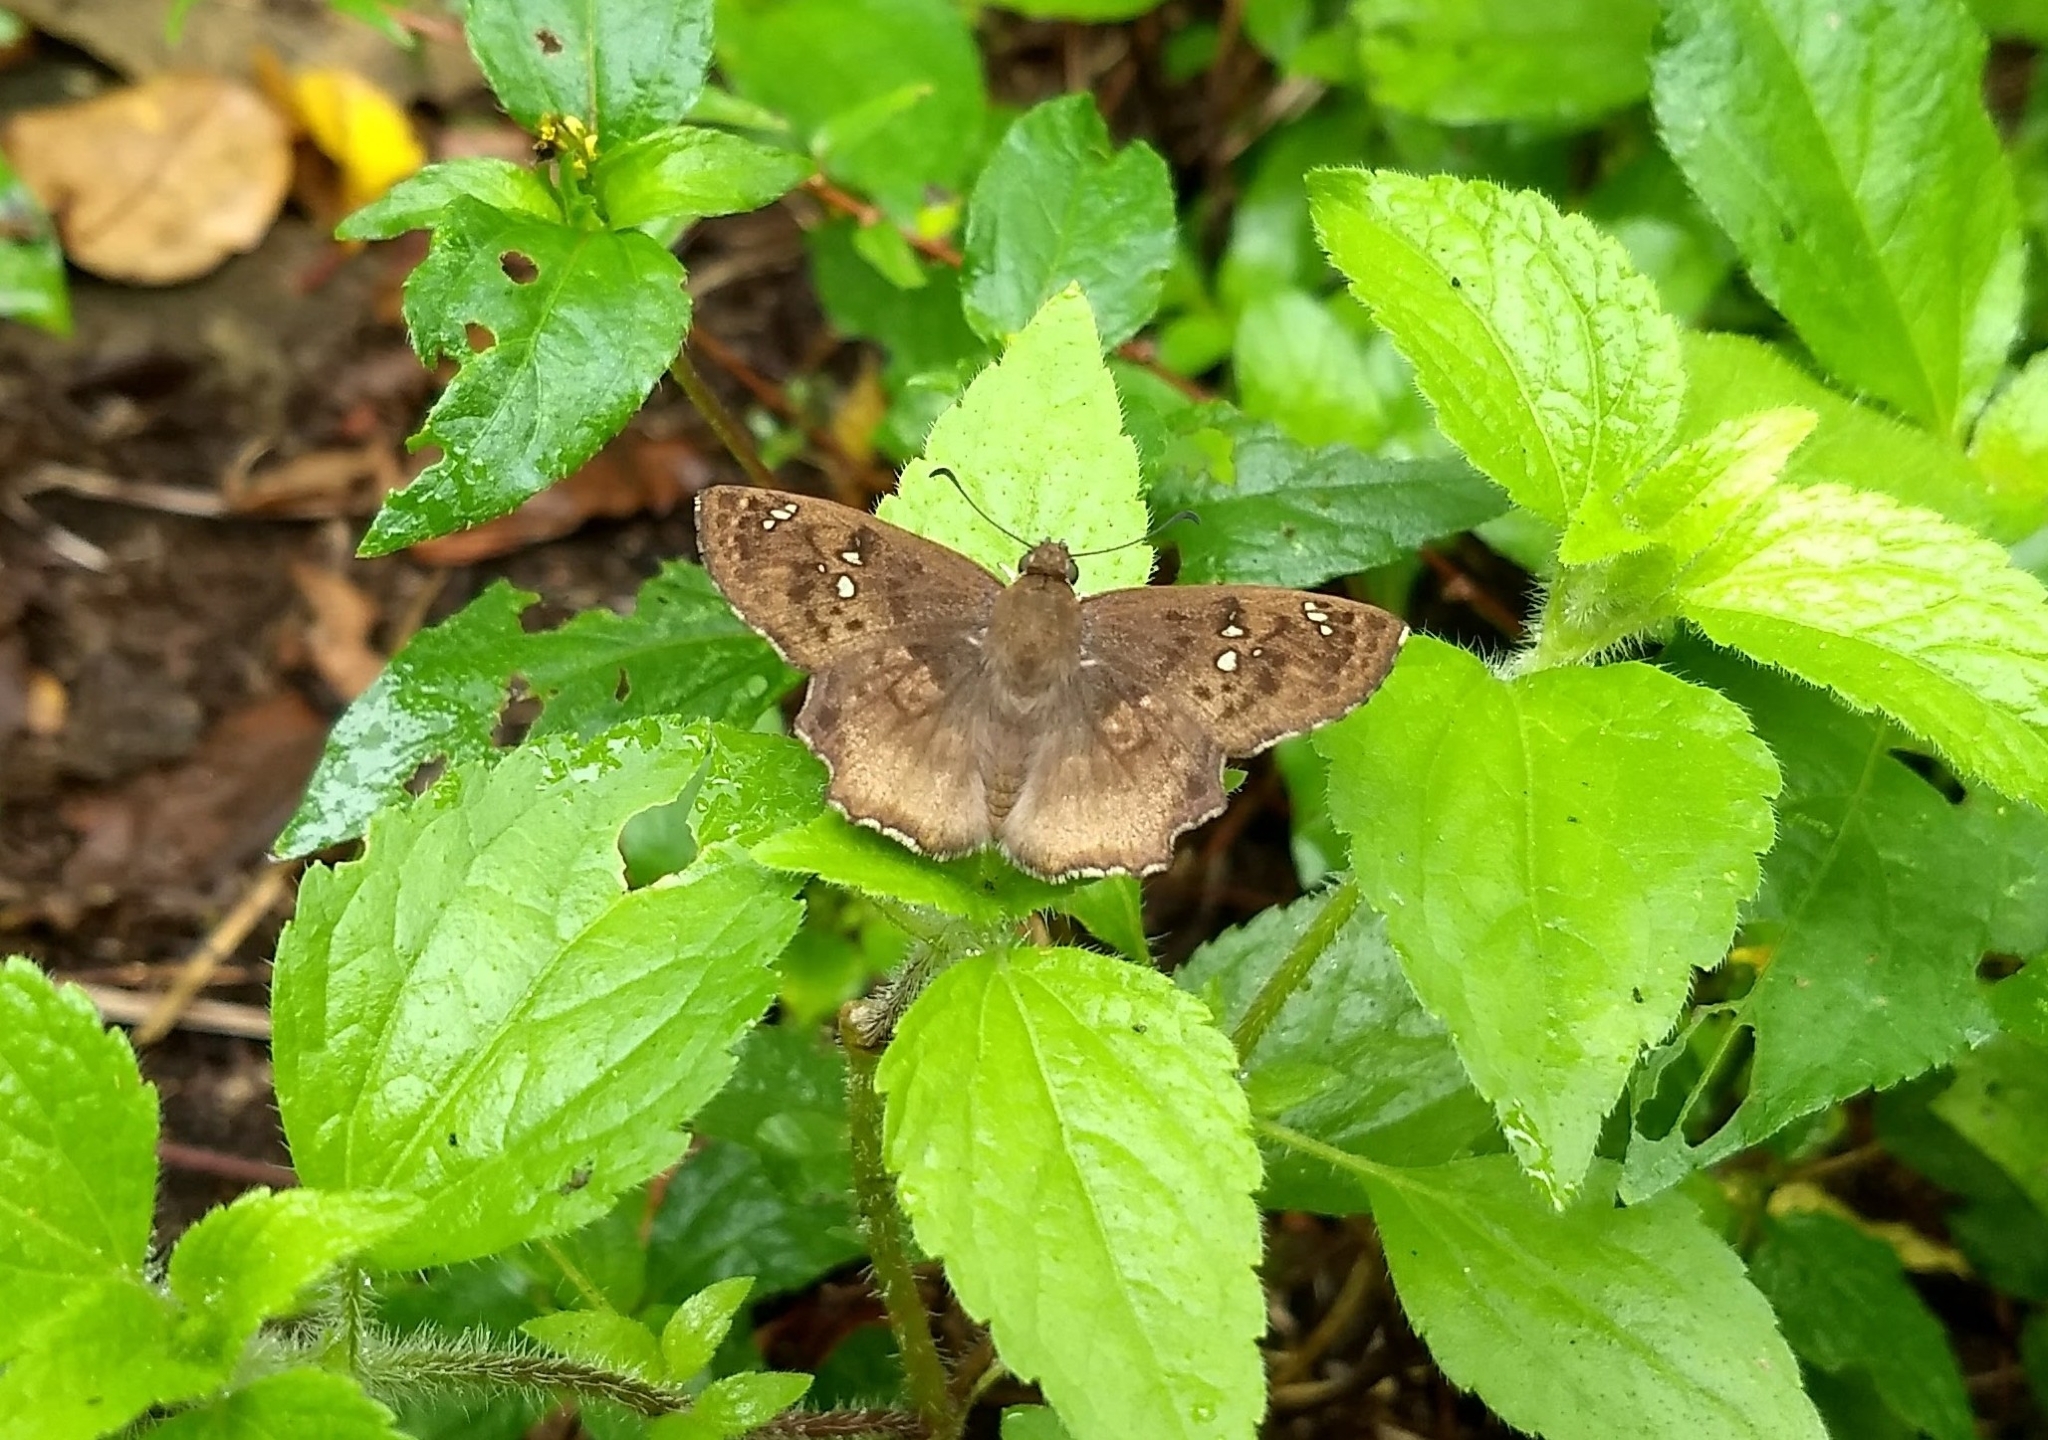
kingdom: Animalia
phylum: Arthropoda
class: Insecta
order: Lepidoptera
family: Hesperiidae
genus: Caprona
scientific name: Caprona ransonnettii
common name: Golden angle
